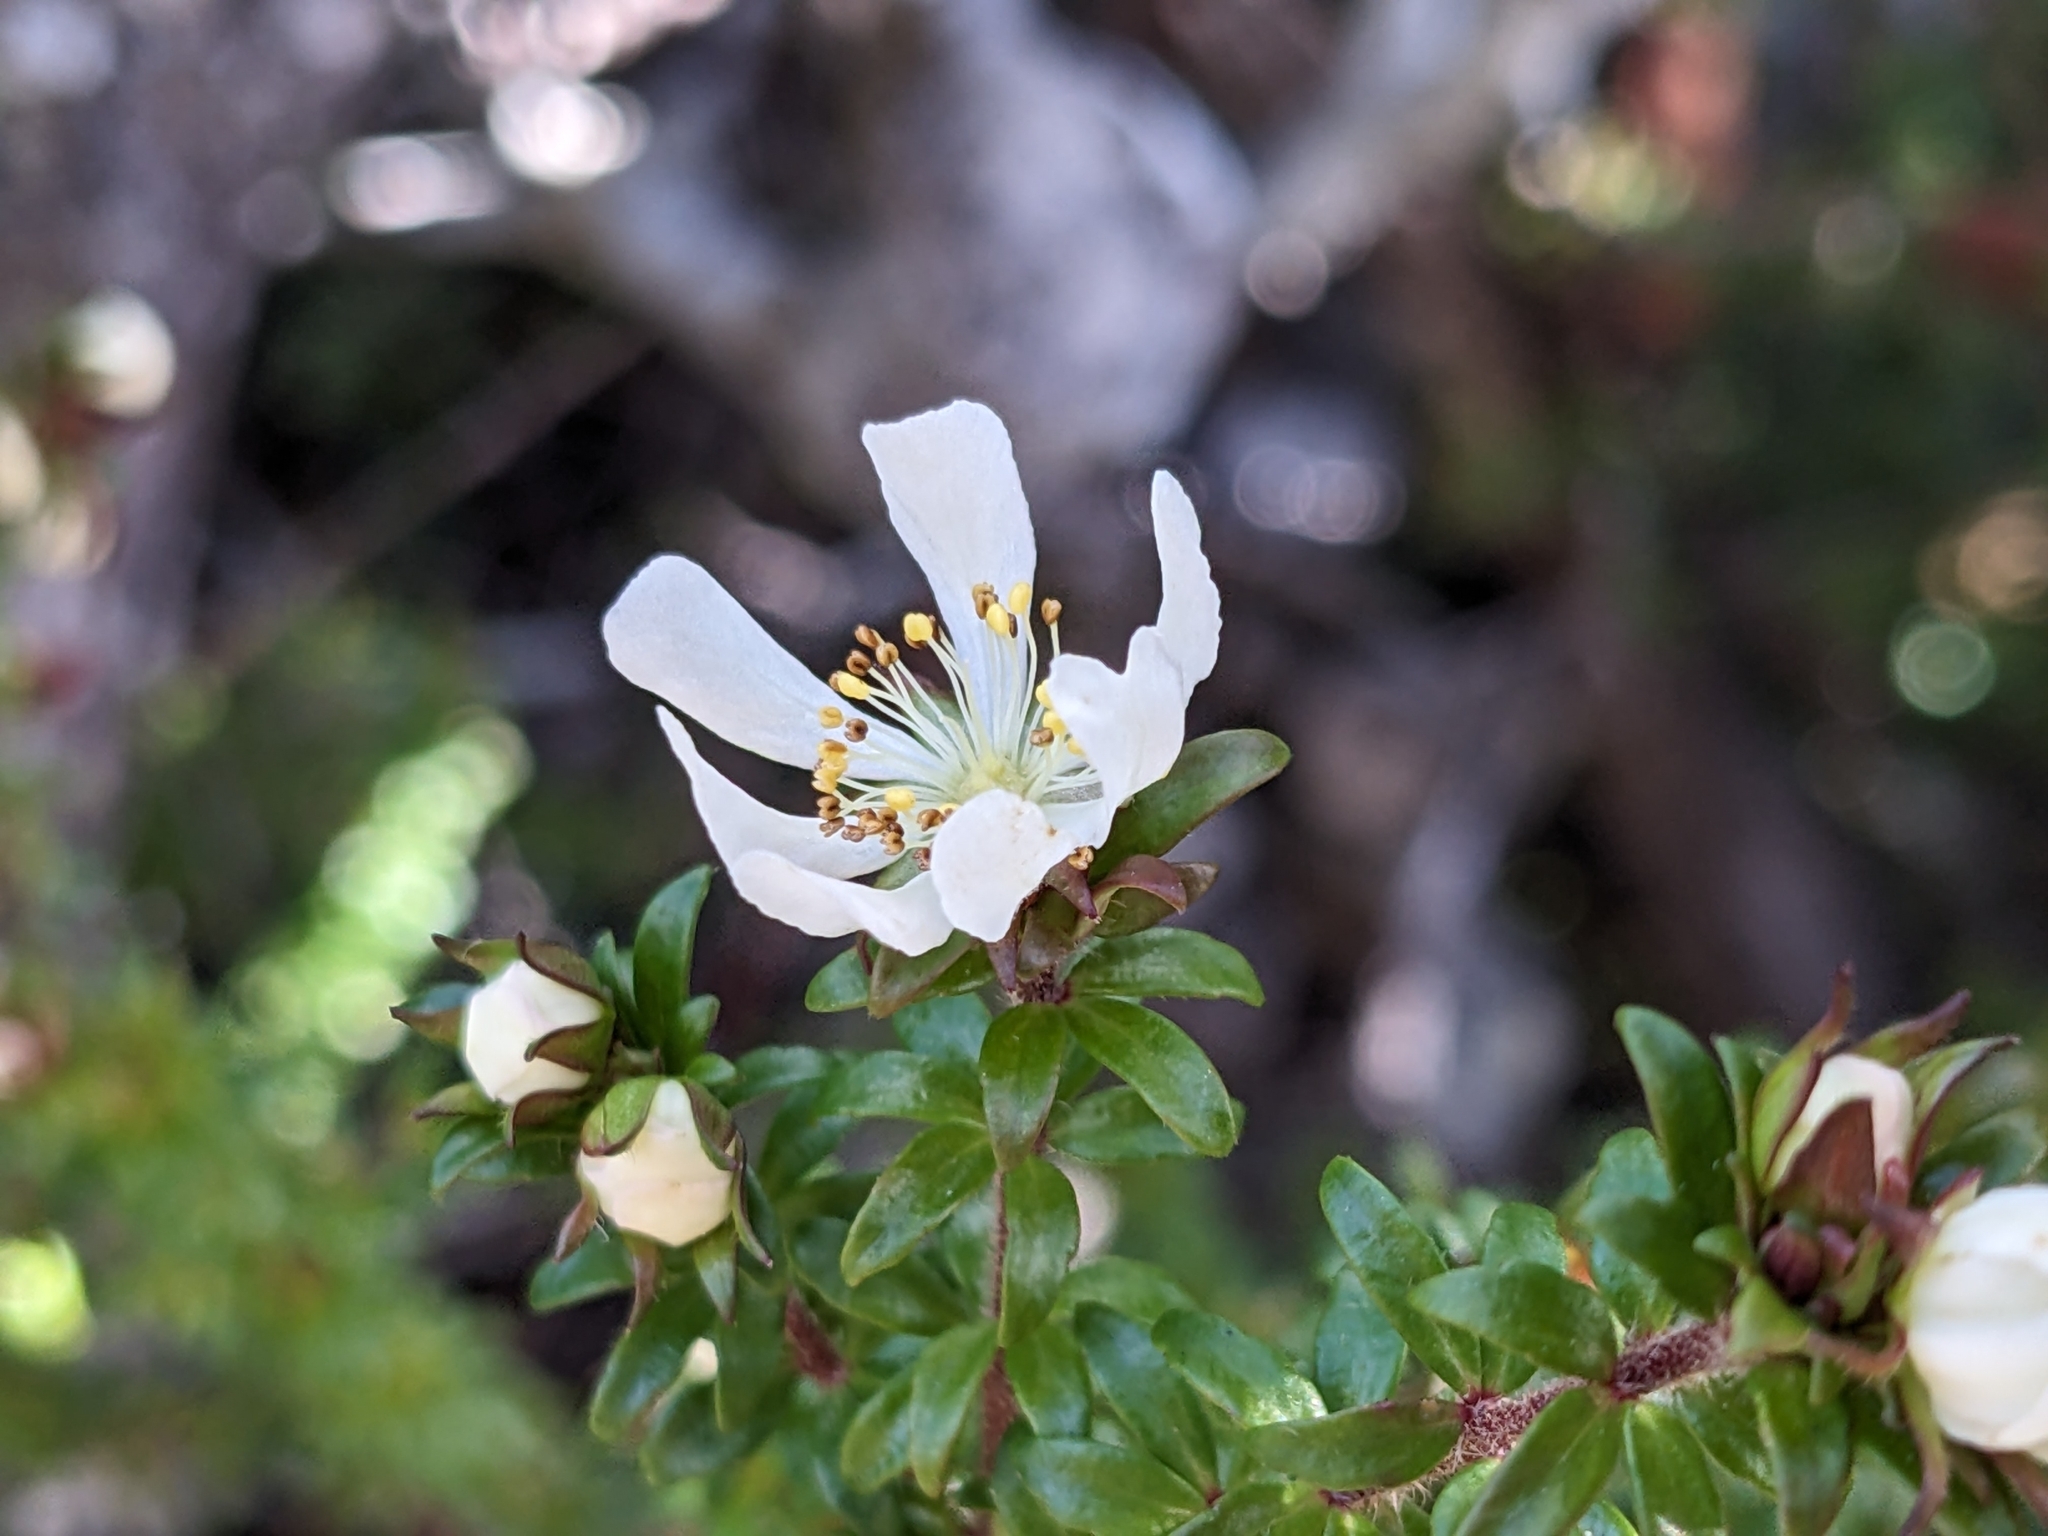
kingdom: Plantae
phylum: Tracheophyta
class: Magnoliopsida
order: Oxalidales
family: Cunoniaceae
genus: Bauera
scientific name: Bauera rubioides
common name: River-rose
